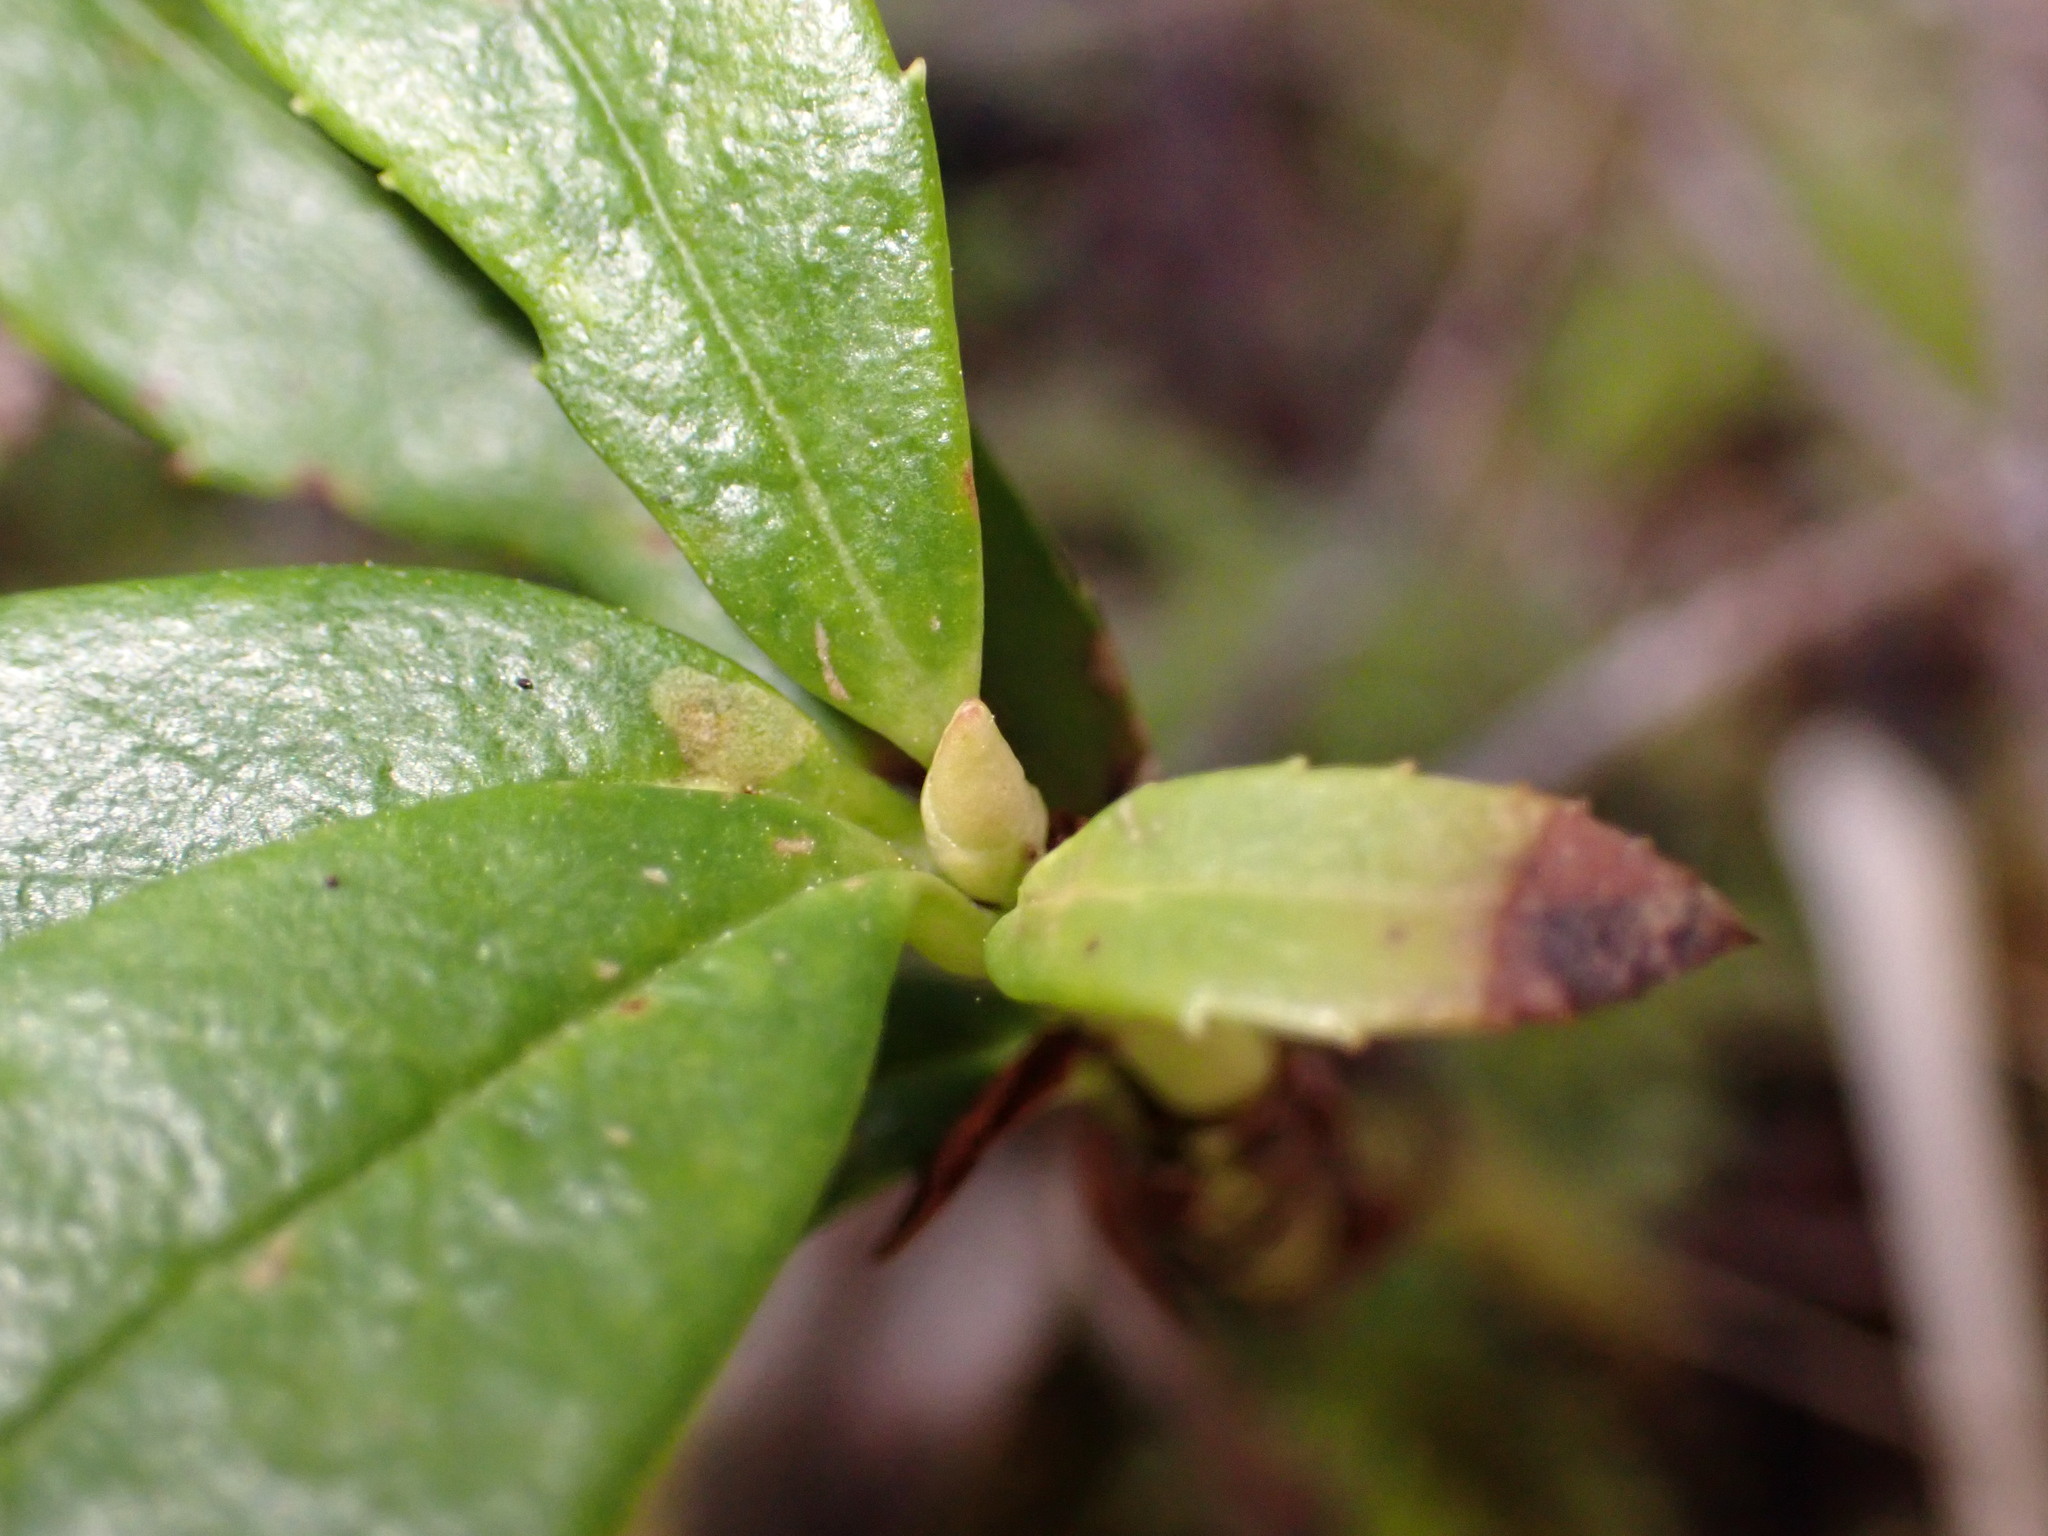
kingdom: Plantae
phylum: Tracheophyta
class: Magnoliopsida
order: Ericales
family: Ericaceae
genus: Chimaphila
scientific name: Chimaphila umbellata
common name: Pipsissewa
